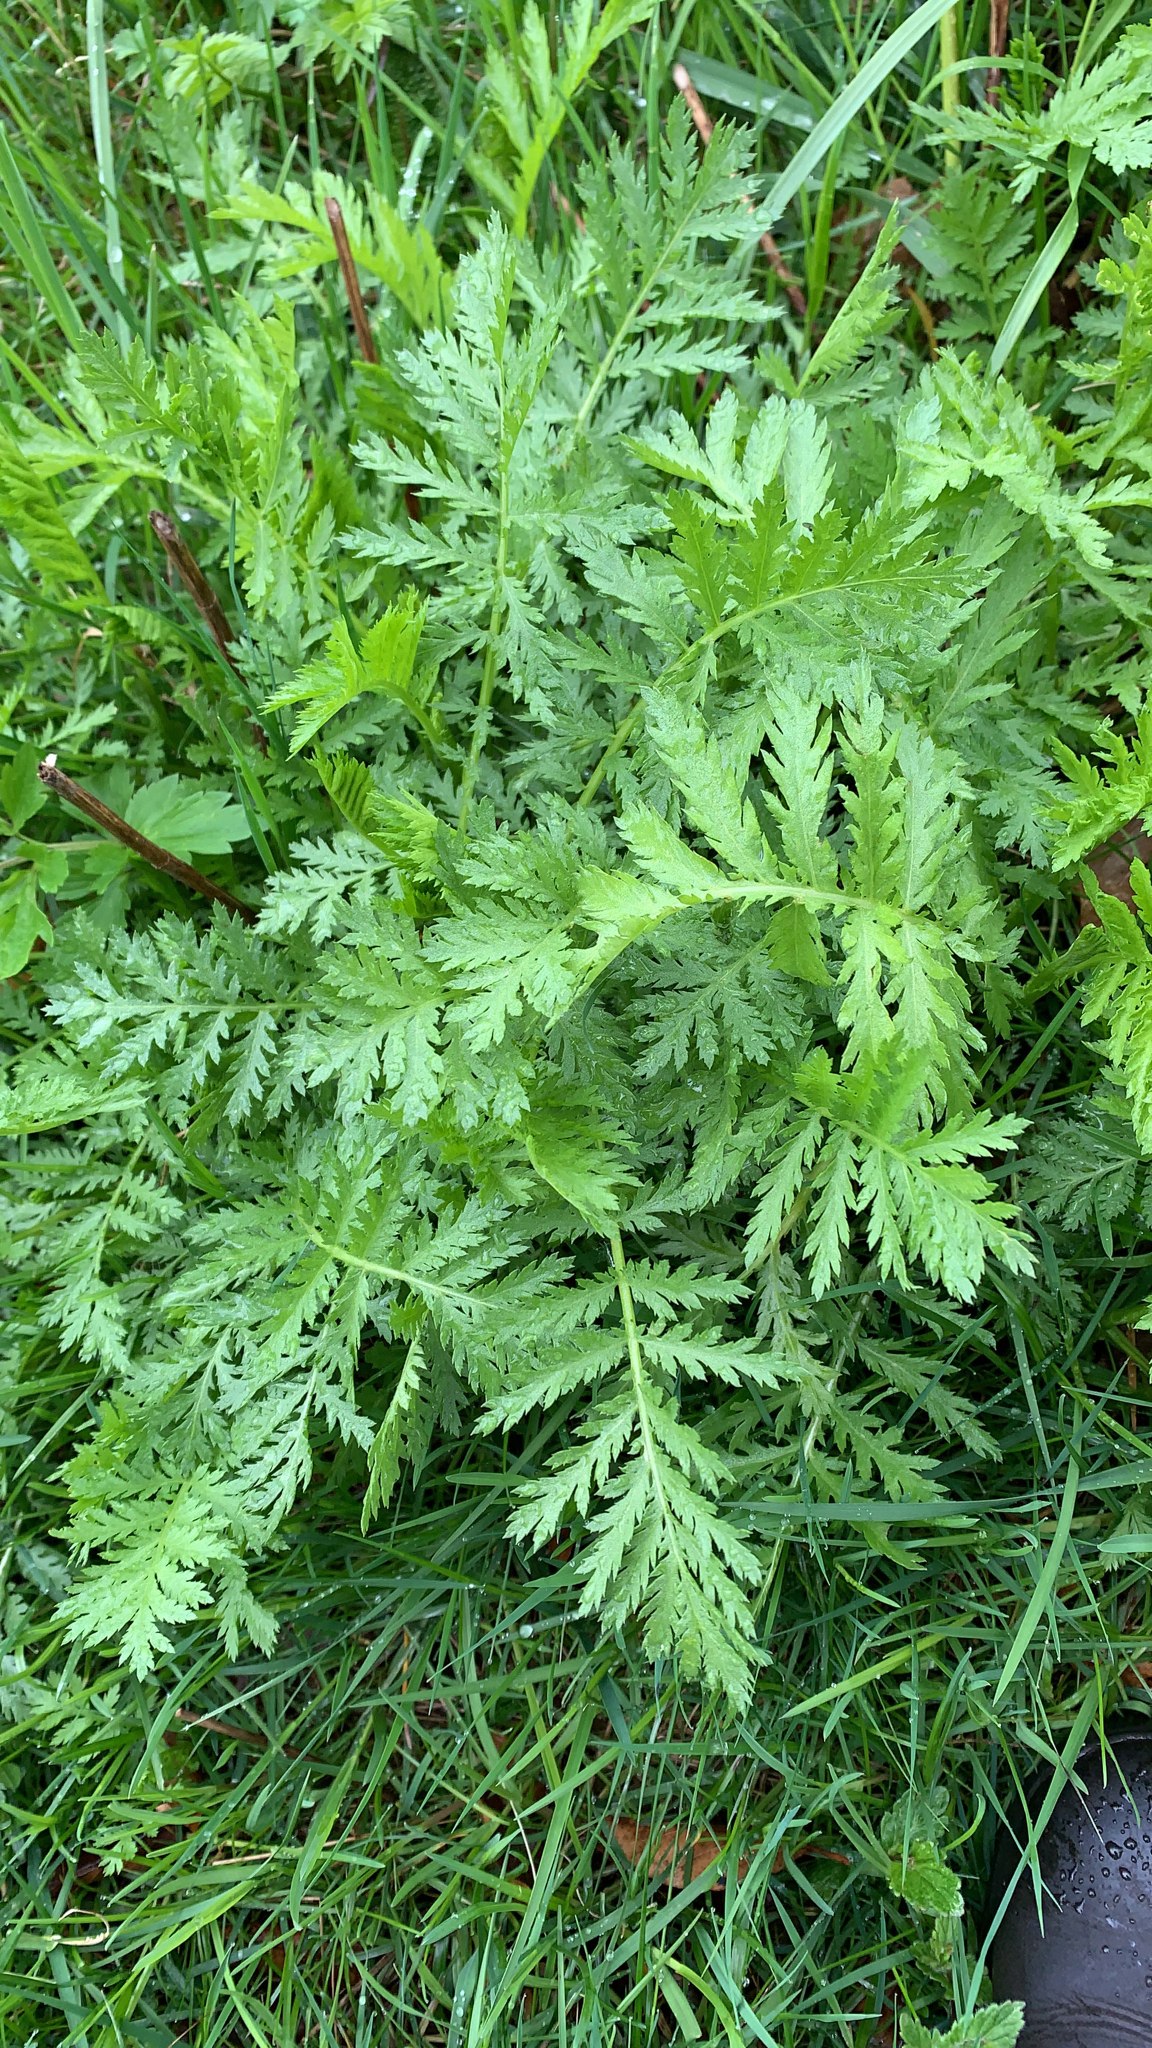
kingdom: Plantae
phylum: Tracheophyta
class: Magnoliopsida
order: Asterales
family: Asteraceae
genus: Tanacetum
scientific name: Tanacetum vulgare
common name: Common tansy
